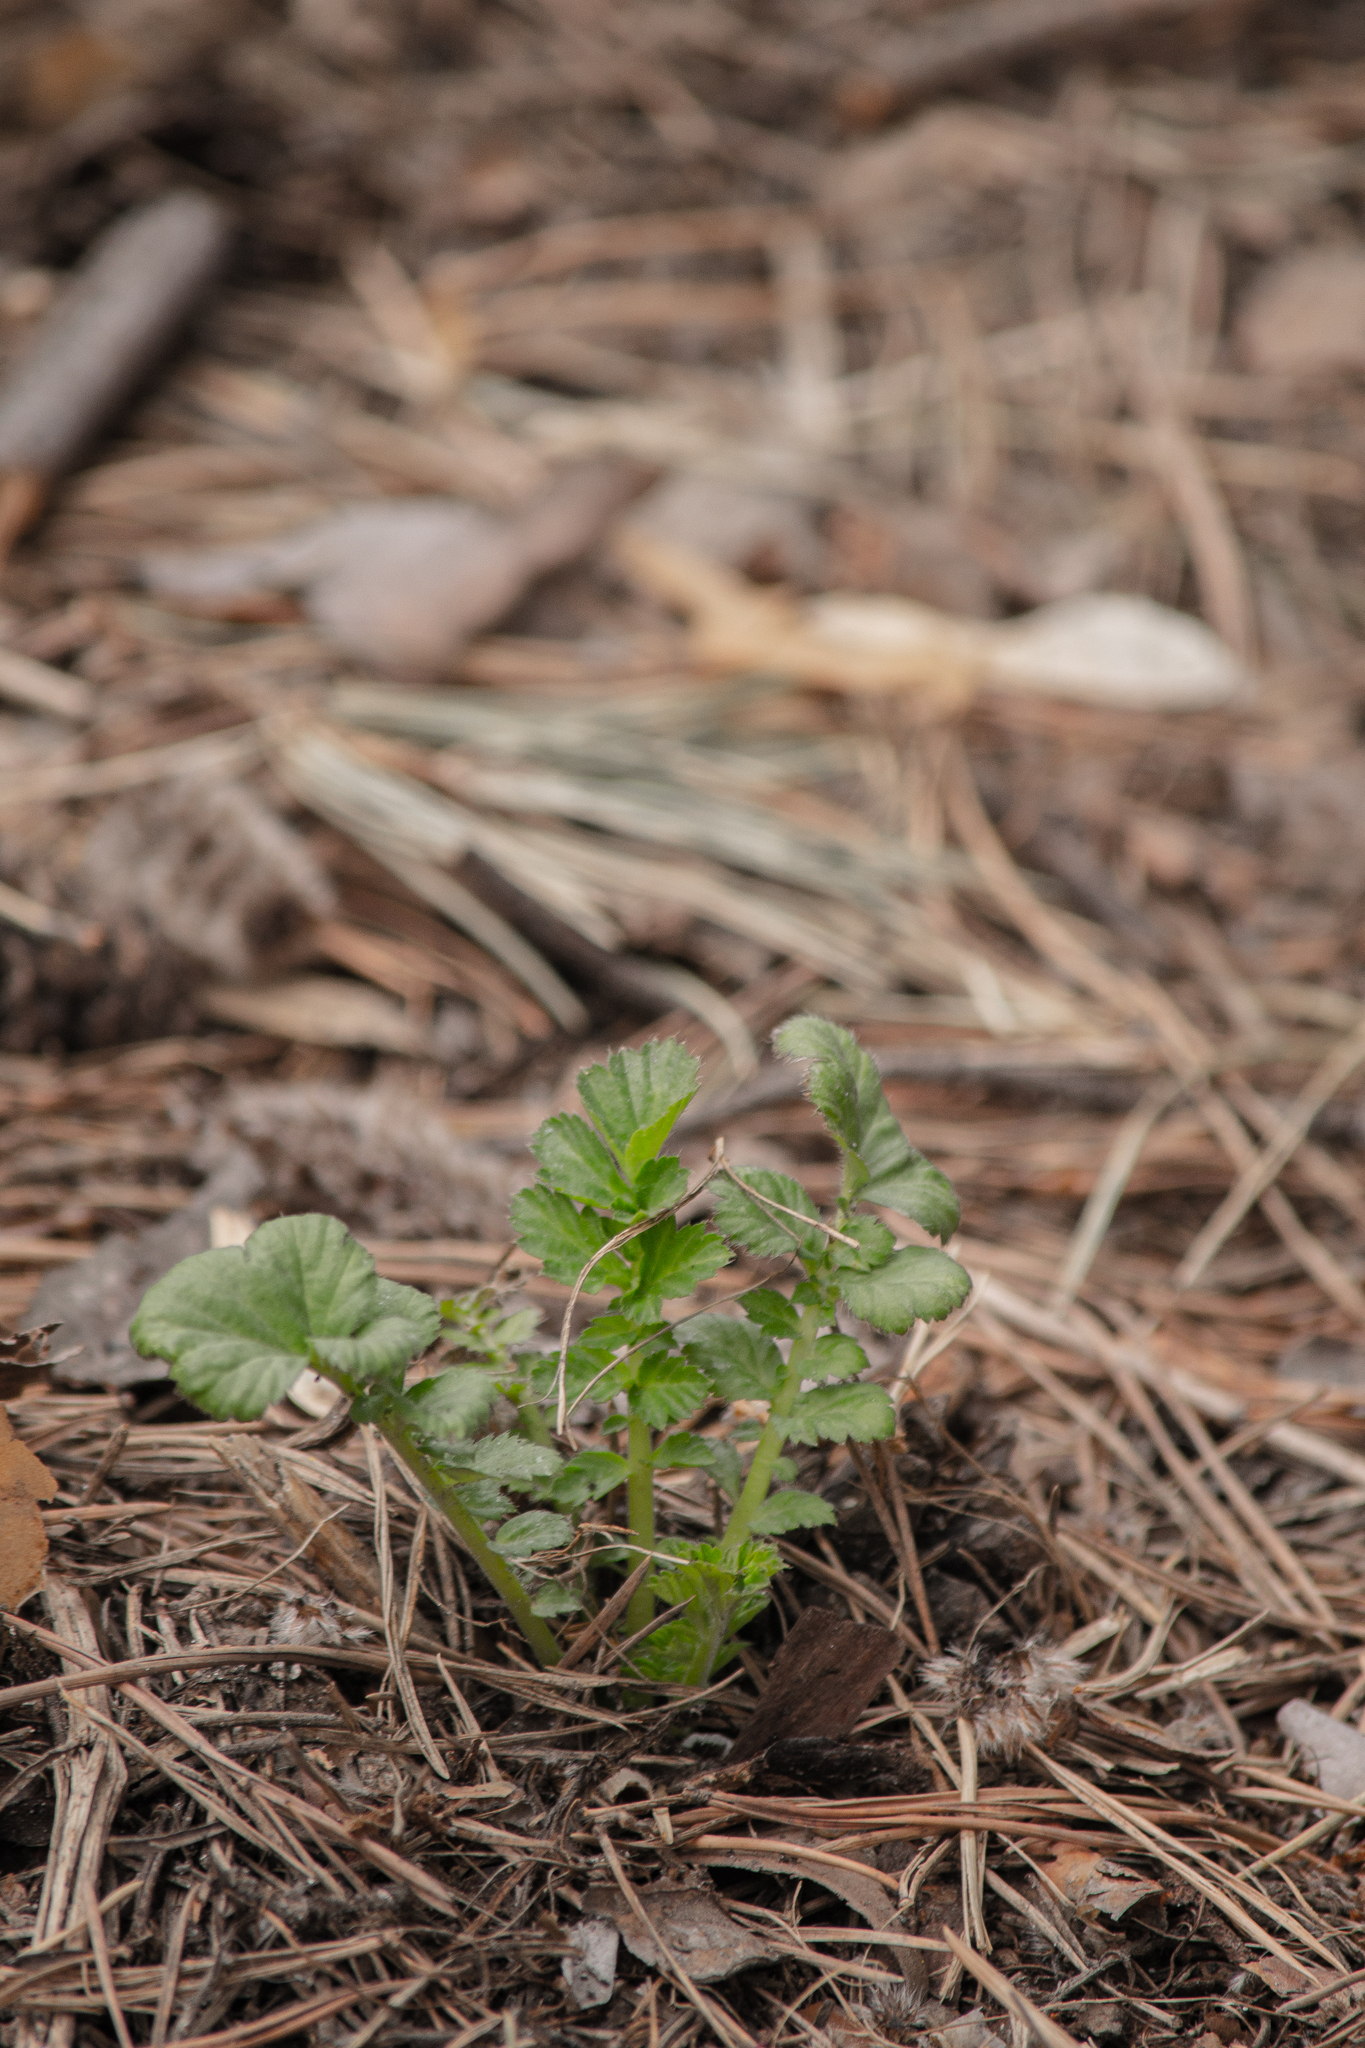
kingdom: Plantae
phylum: Tracheophyta
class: Magnoliopsida
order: Rosales
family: Rosaceae
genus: Geum
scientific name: Geum aleppicum
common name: Yellow avens
